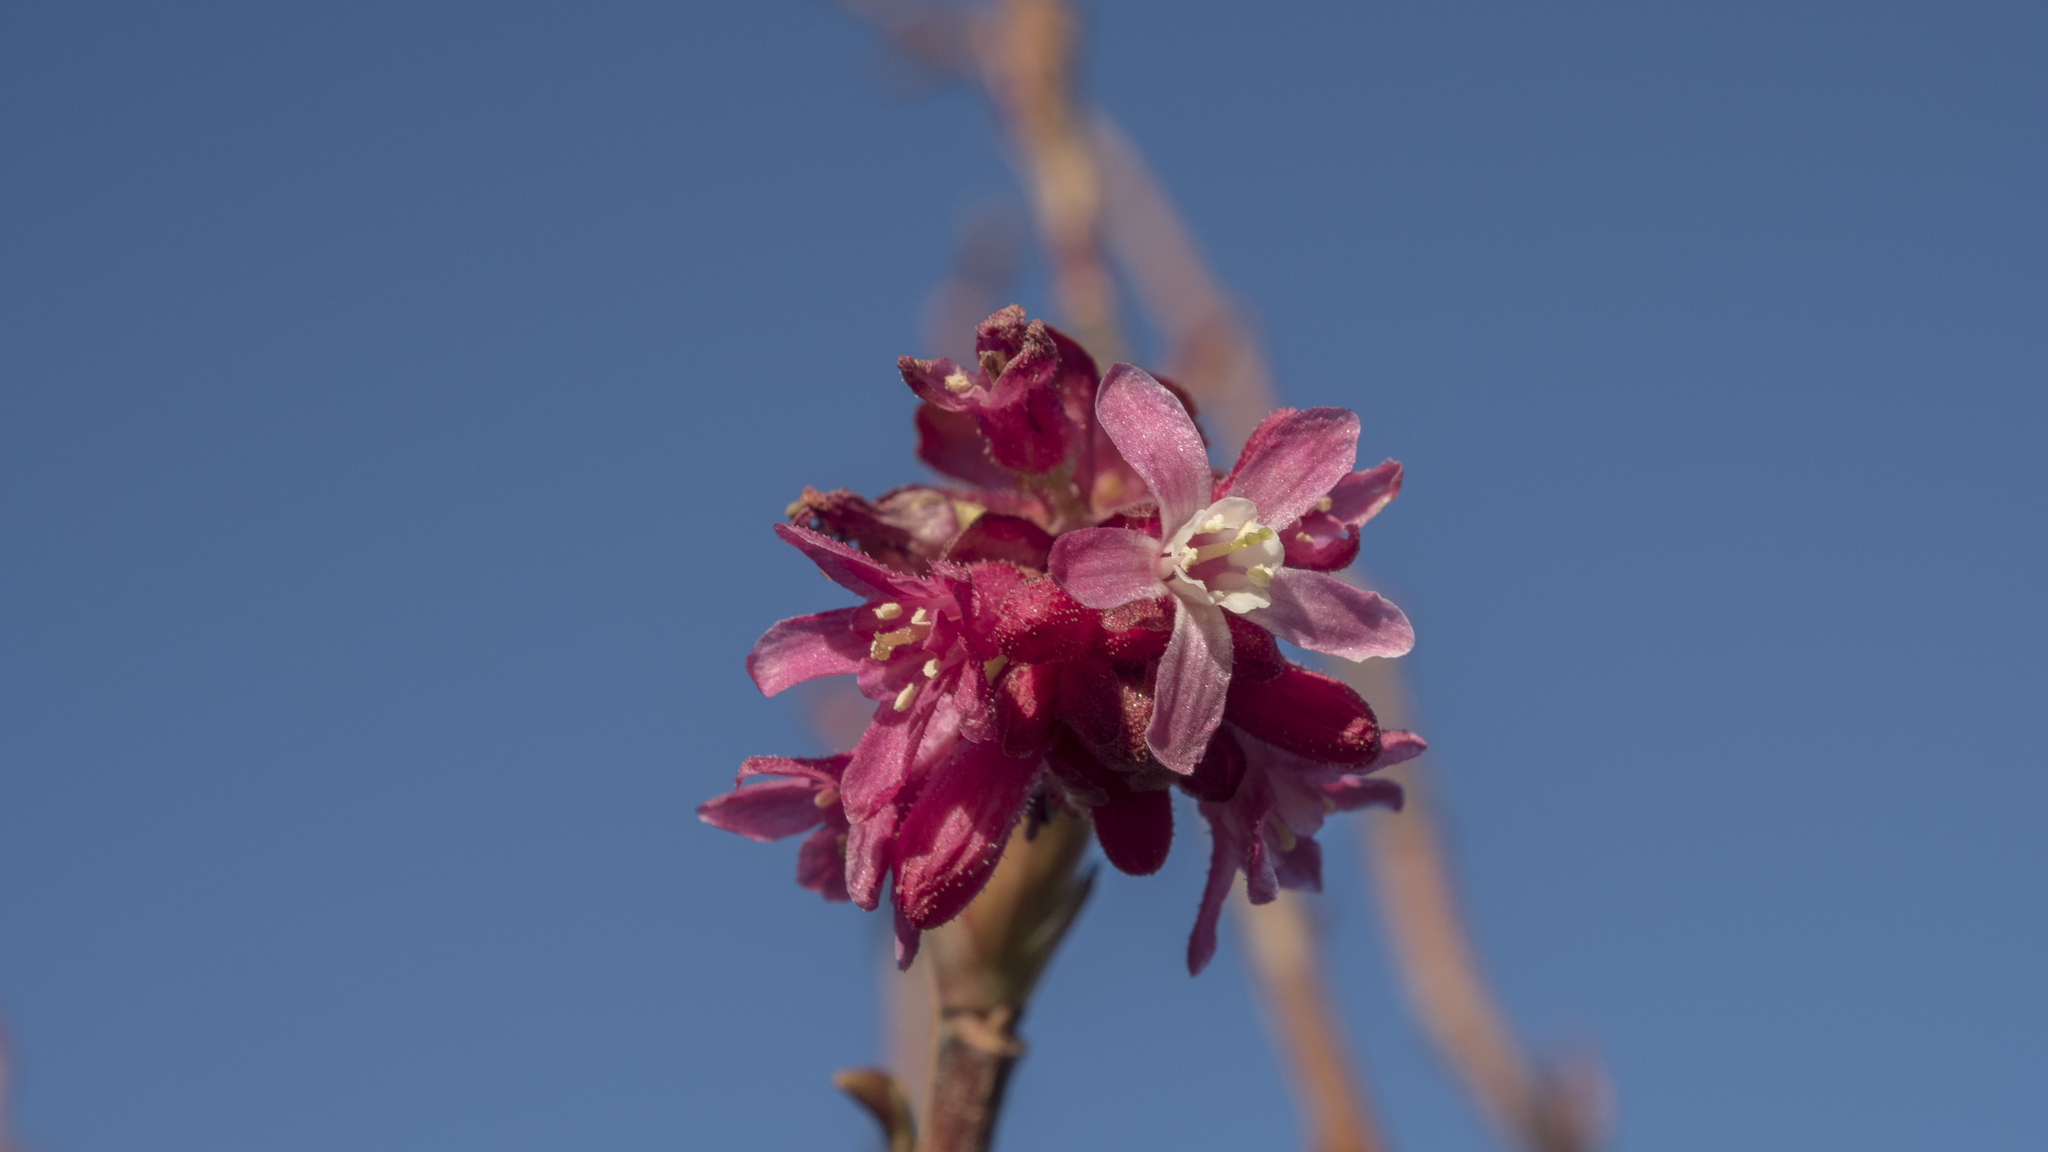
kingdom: Plantae
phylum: Tracheophyta
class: Magnoliopsida
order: Saxifragales
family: Grossulariaceae
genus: Ribes
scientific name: Ribes sanguineum
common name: Flowering currant
